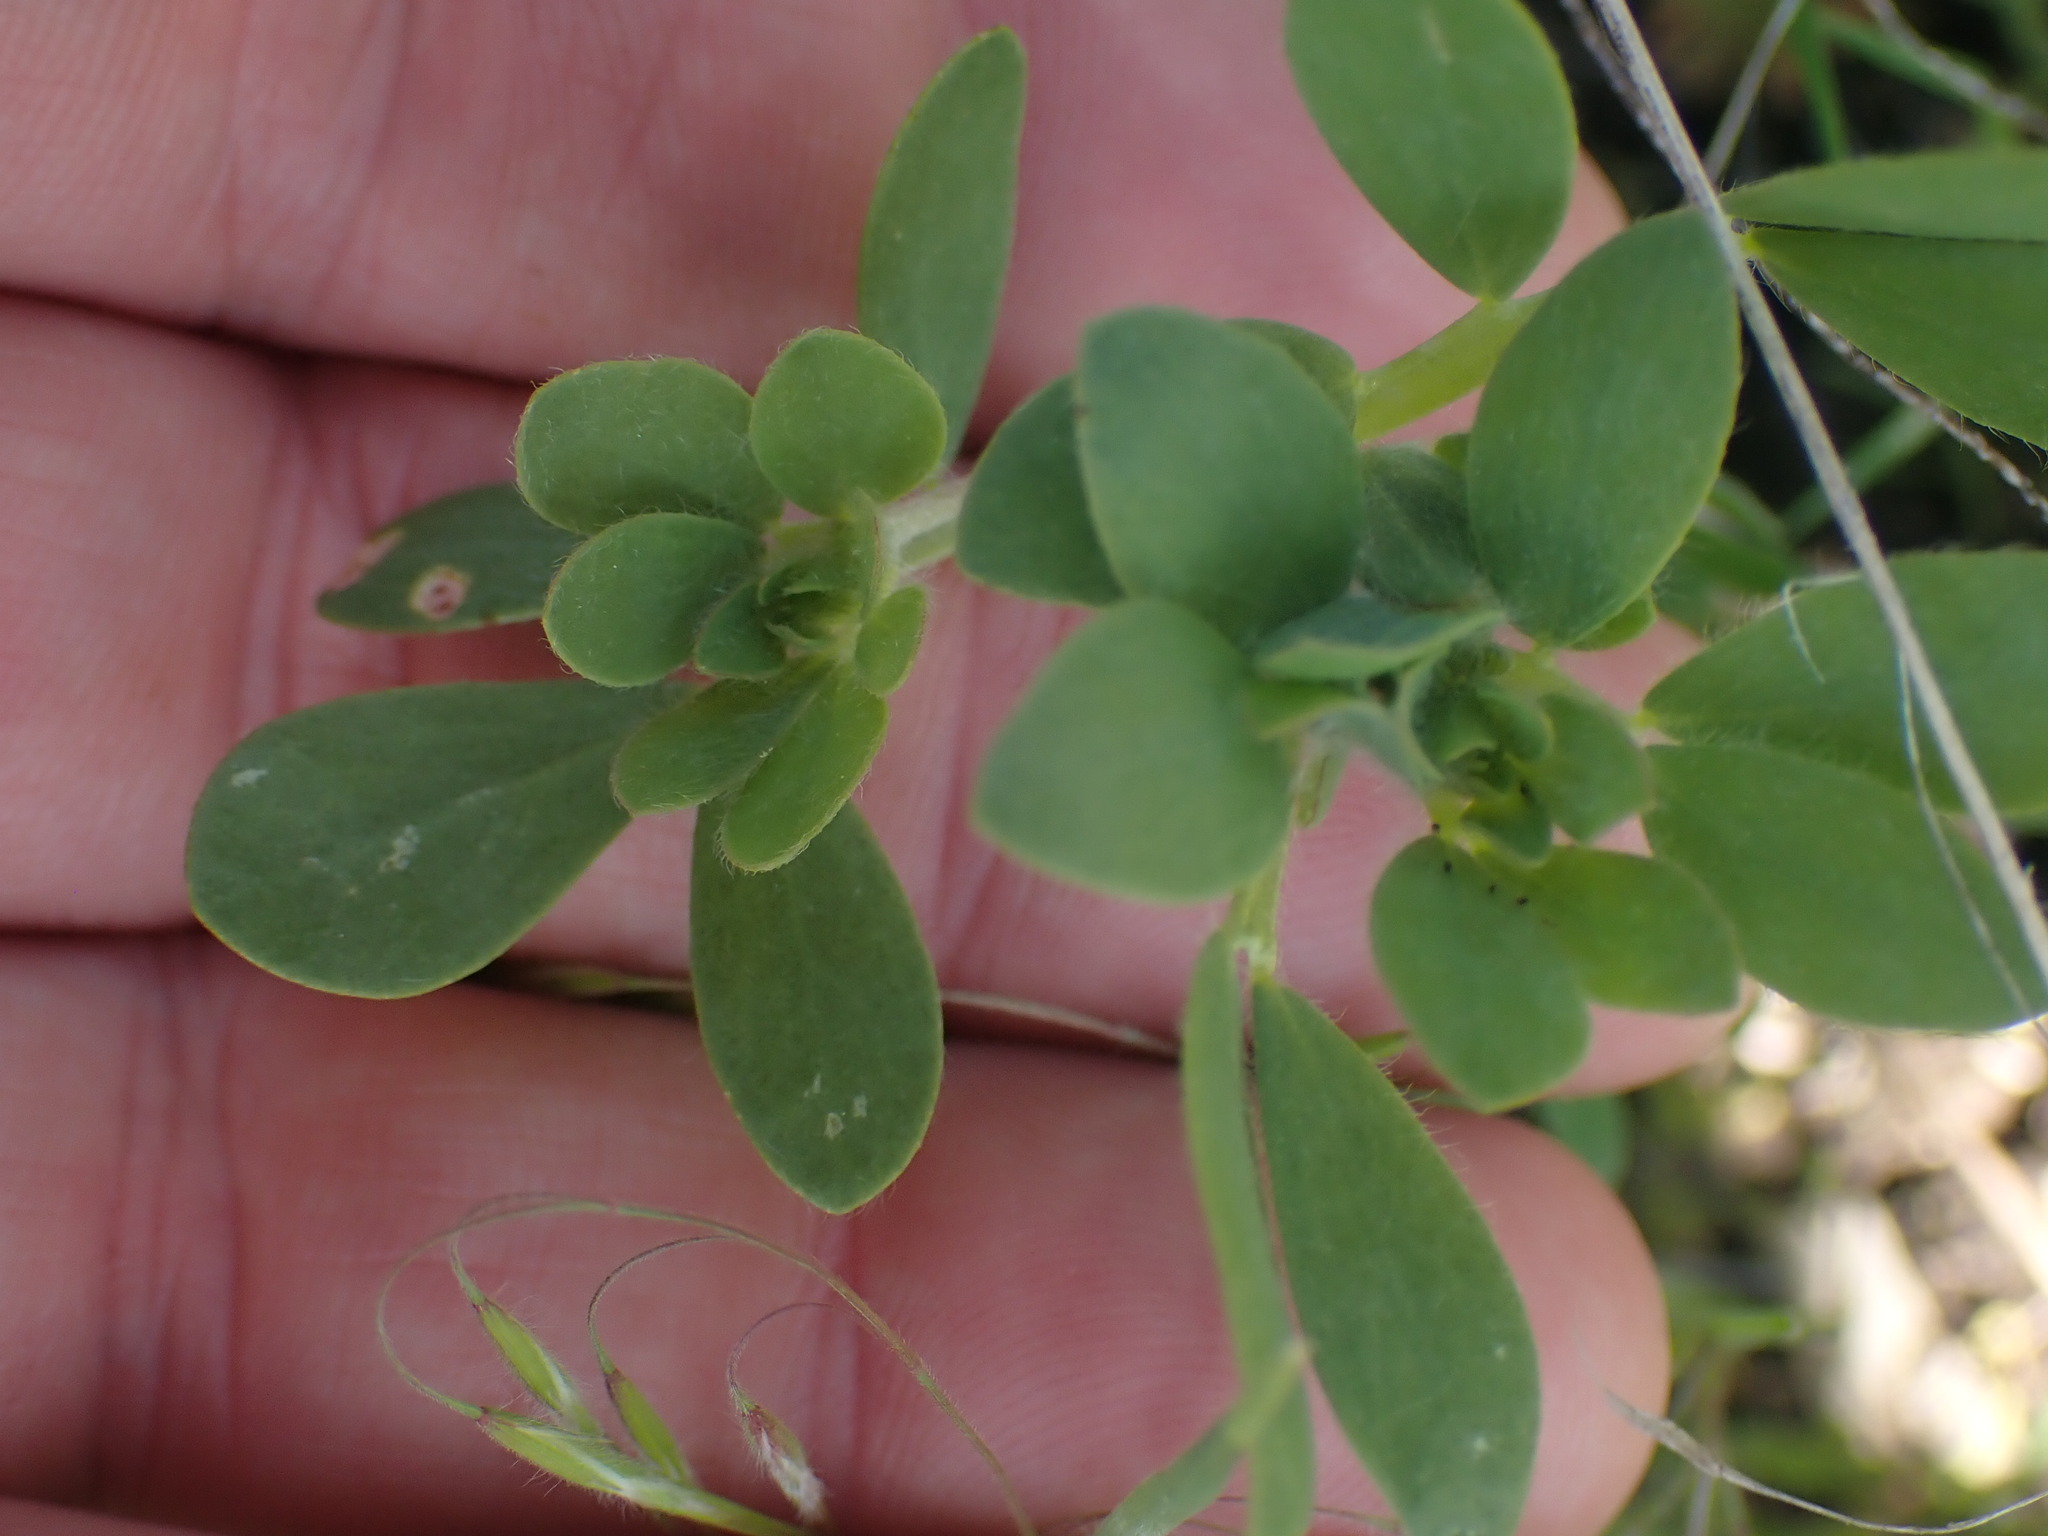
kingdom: Plantae
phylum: Tracheophyta
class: Magnoliopsida
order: Fabales
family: Fabaceae
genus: Lotus
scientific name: Lotus corniculatus
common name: Common bird's-foot-trefoil
